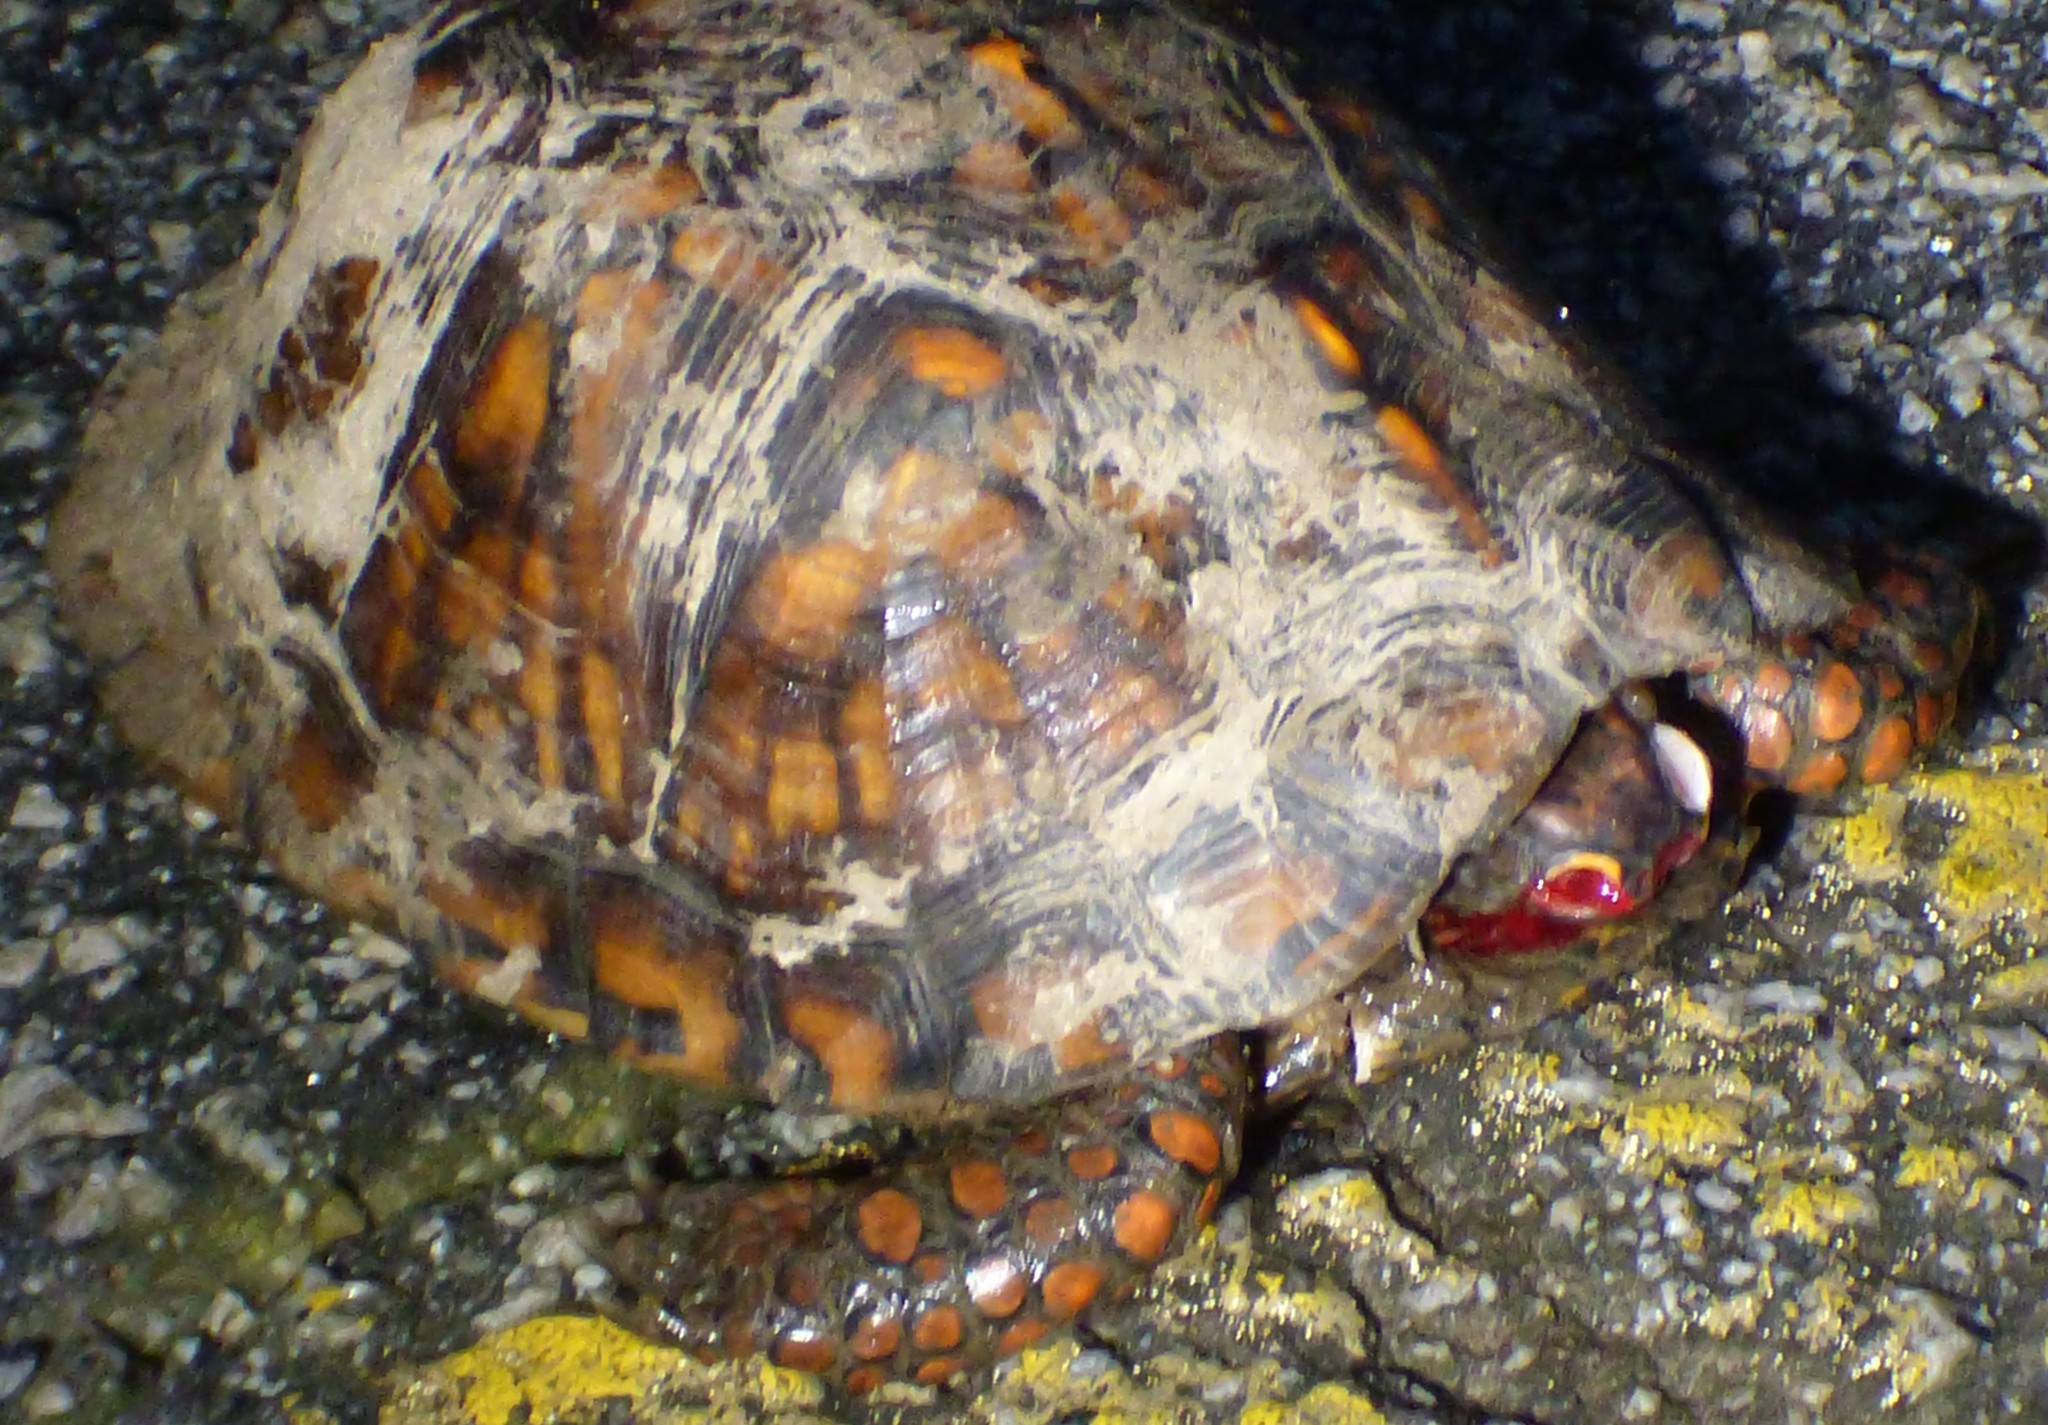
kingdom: Animalia
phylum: Chordata
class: Testudines
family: Emydidae
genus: Terrapene
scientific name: Terrapene carolina
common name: Common box turtle
